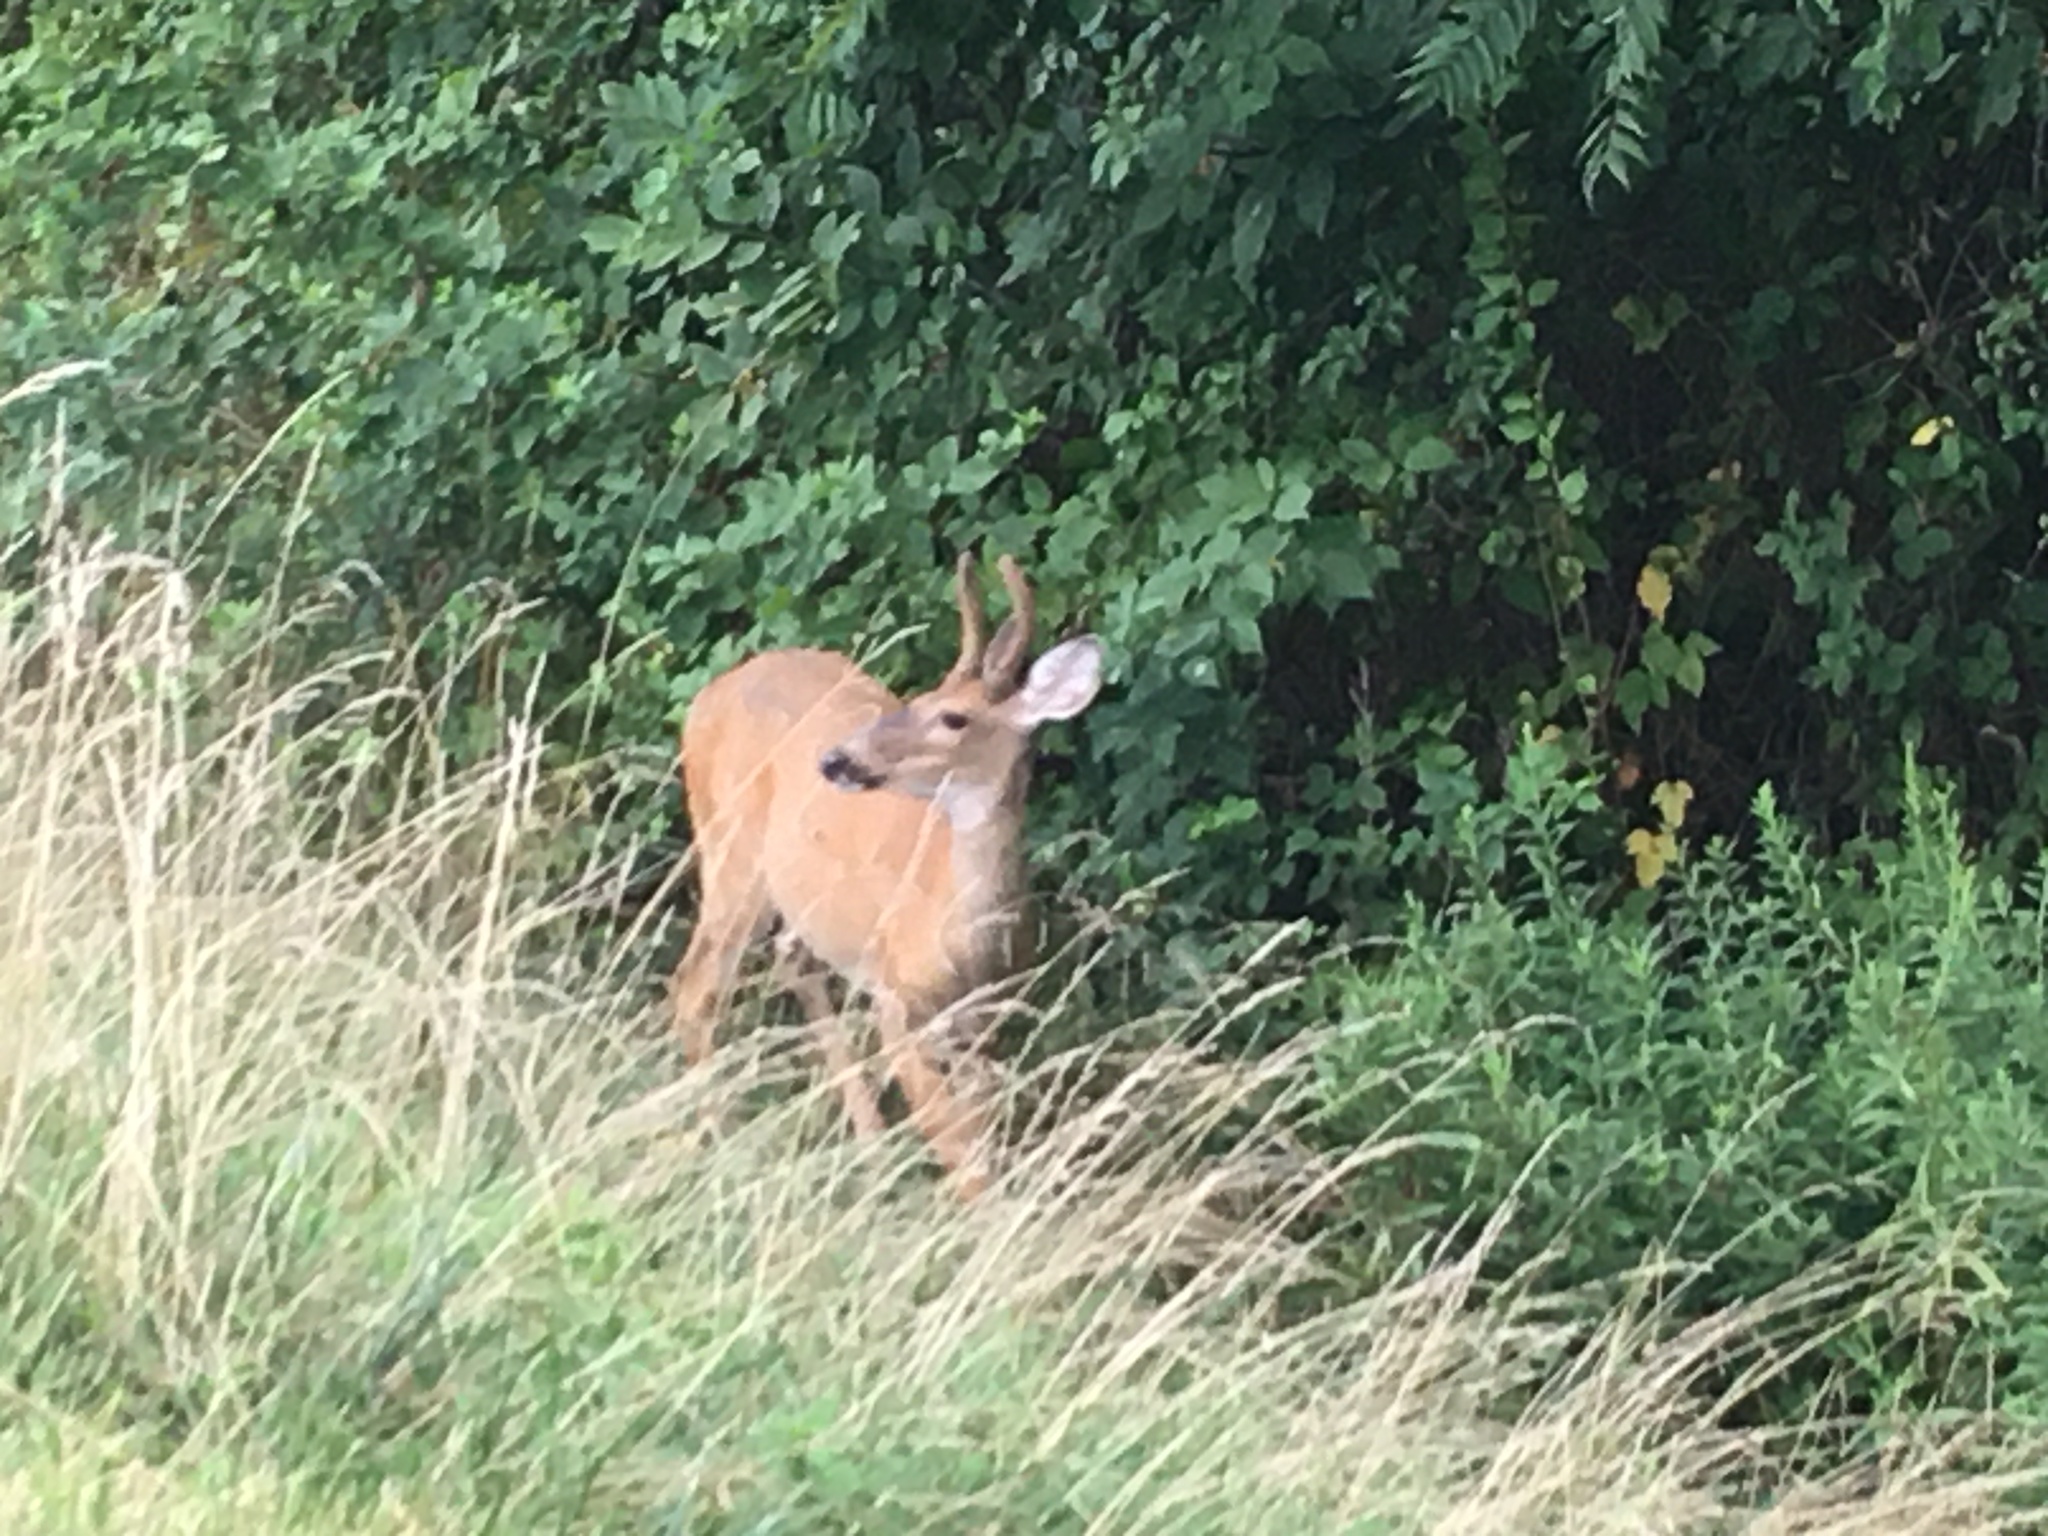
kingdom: Animalia
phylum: Chordata
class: Mammalia
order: Artiodactyla
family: Cervidae
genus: Odocoileus
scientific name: Odocoileus virginianus
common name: White-tailed deer
